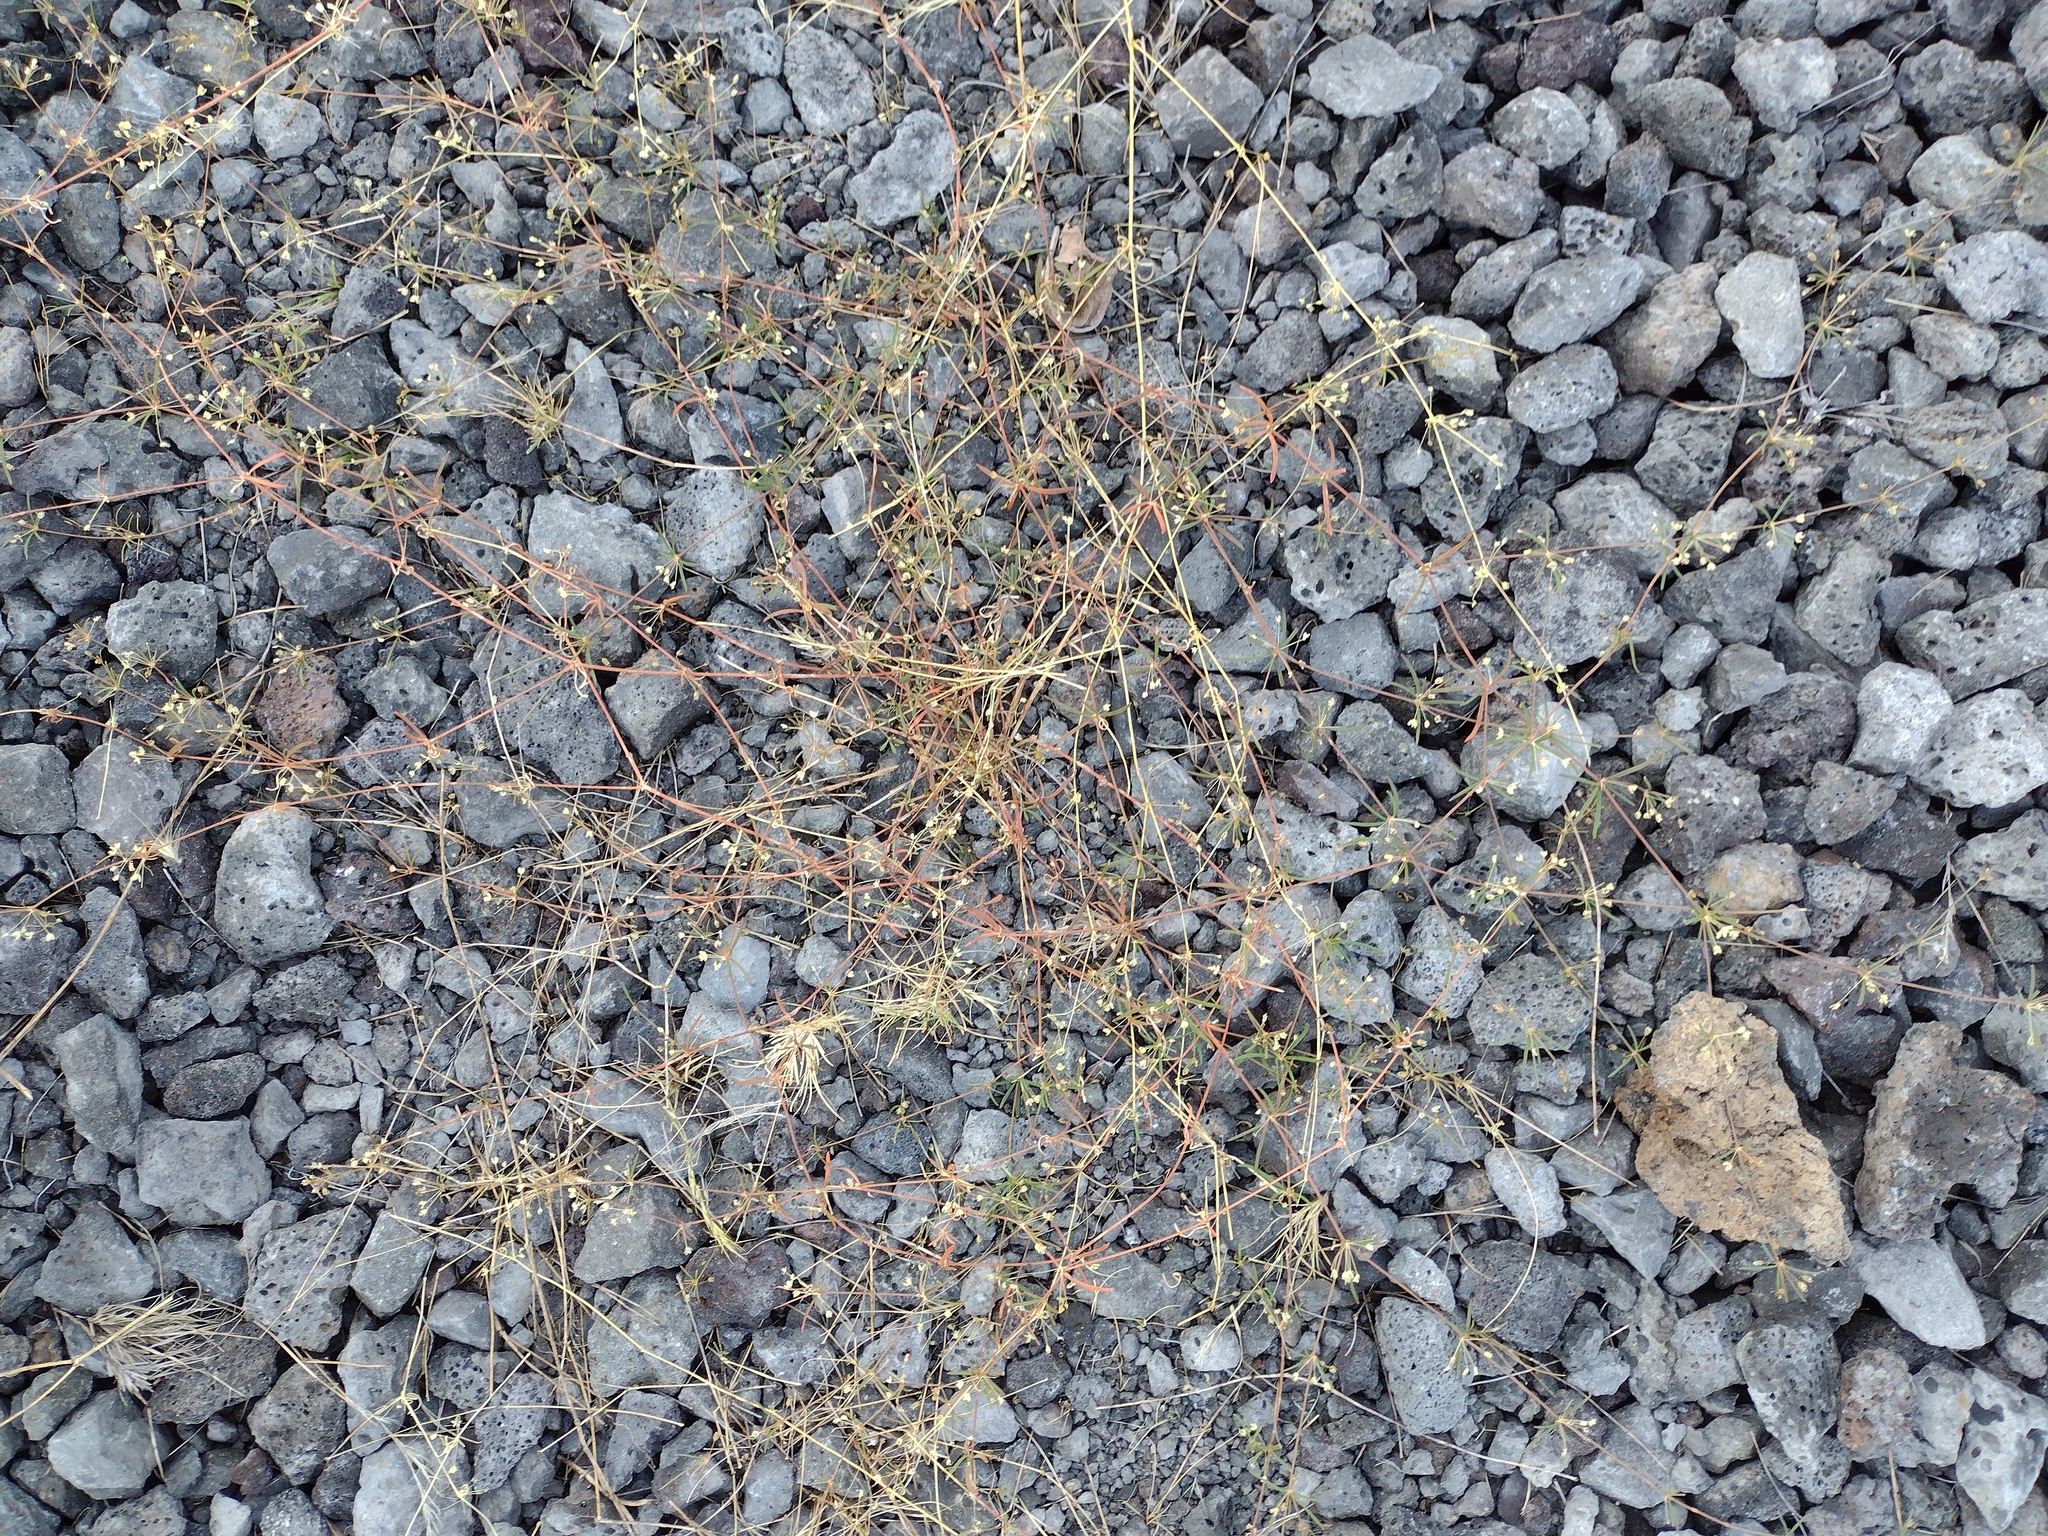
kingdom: Plantae
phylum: Tracheophyta
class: Magnoliopsida
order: Caryophyllales
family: Molluginaceae
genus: Mollugo
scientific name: Mollugo verticillata
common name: Green carpetweed
